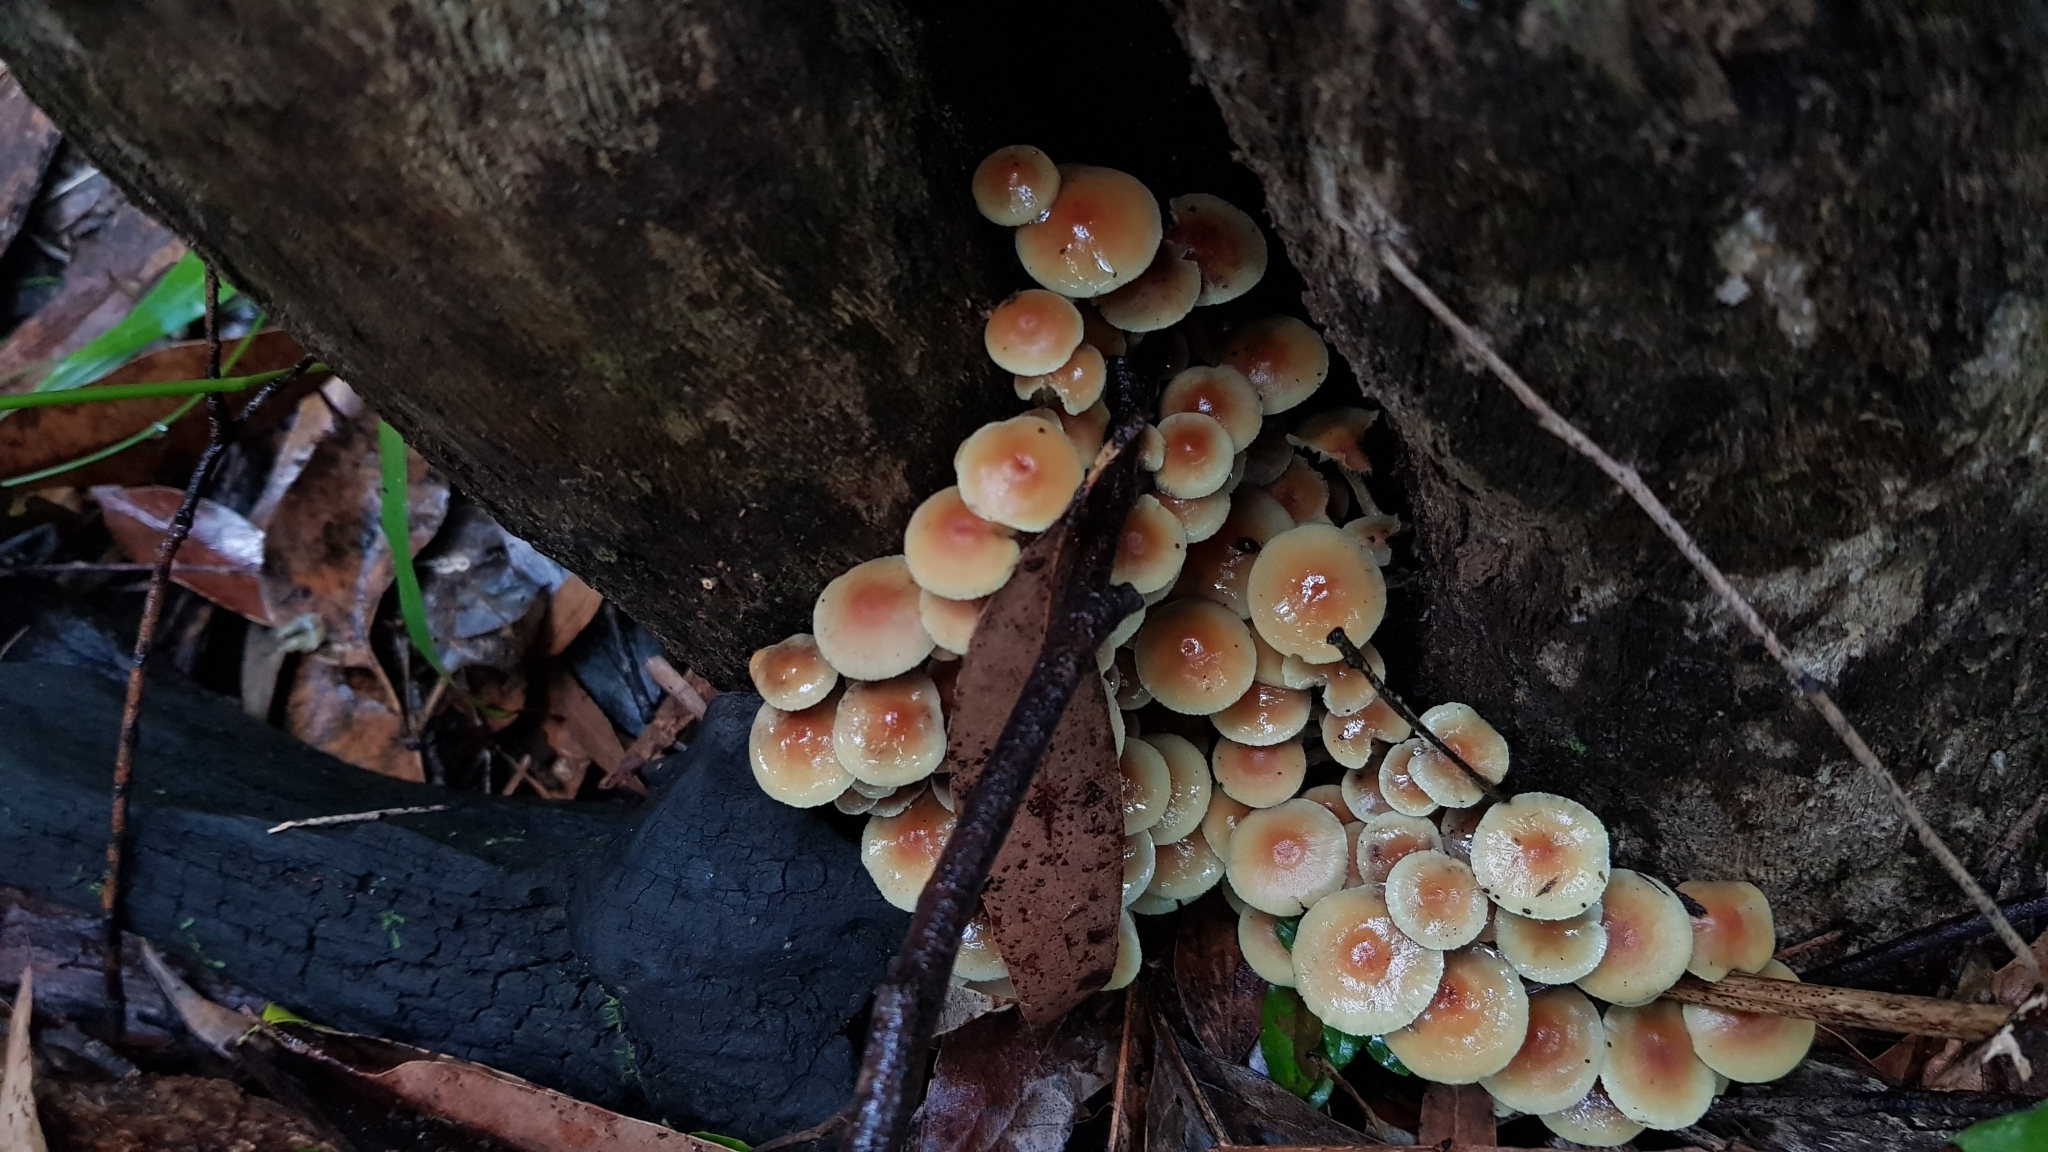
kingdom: Fungi
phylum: Basidiomycota
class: Agaricomycetes
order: Agaricales
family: Strophariaceae
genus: Hypholoma
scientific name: Hypholoma fasciculare
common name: Sulphur tuft
